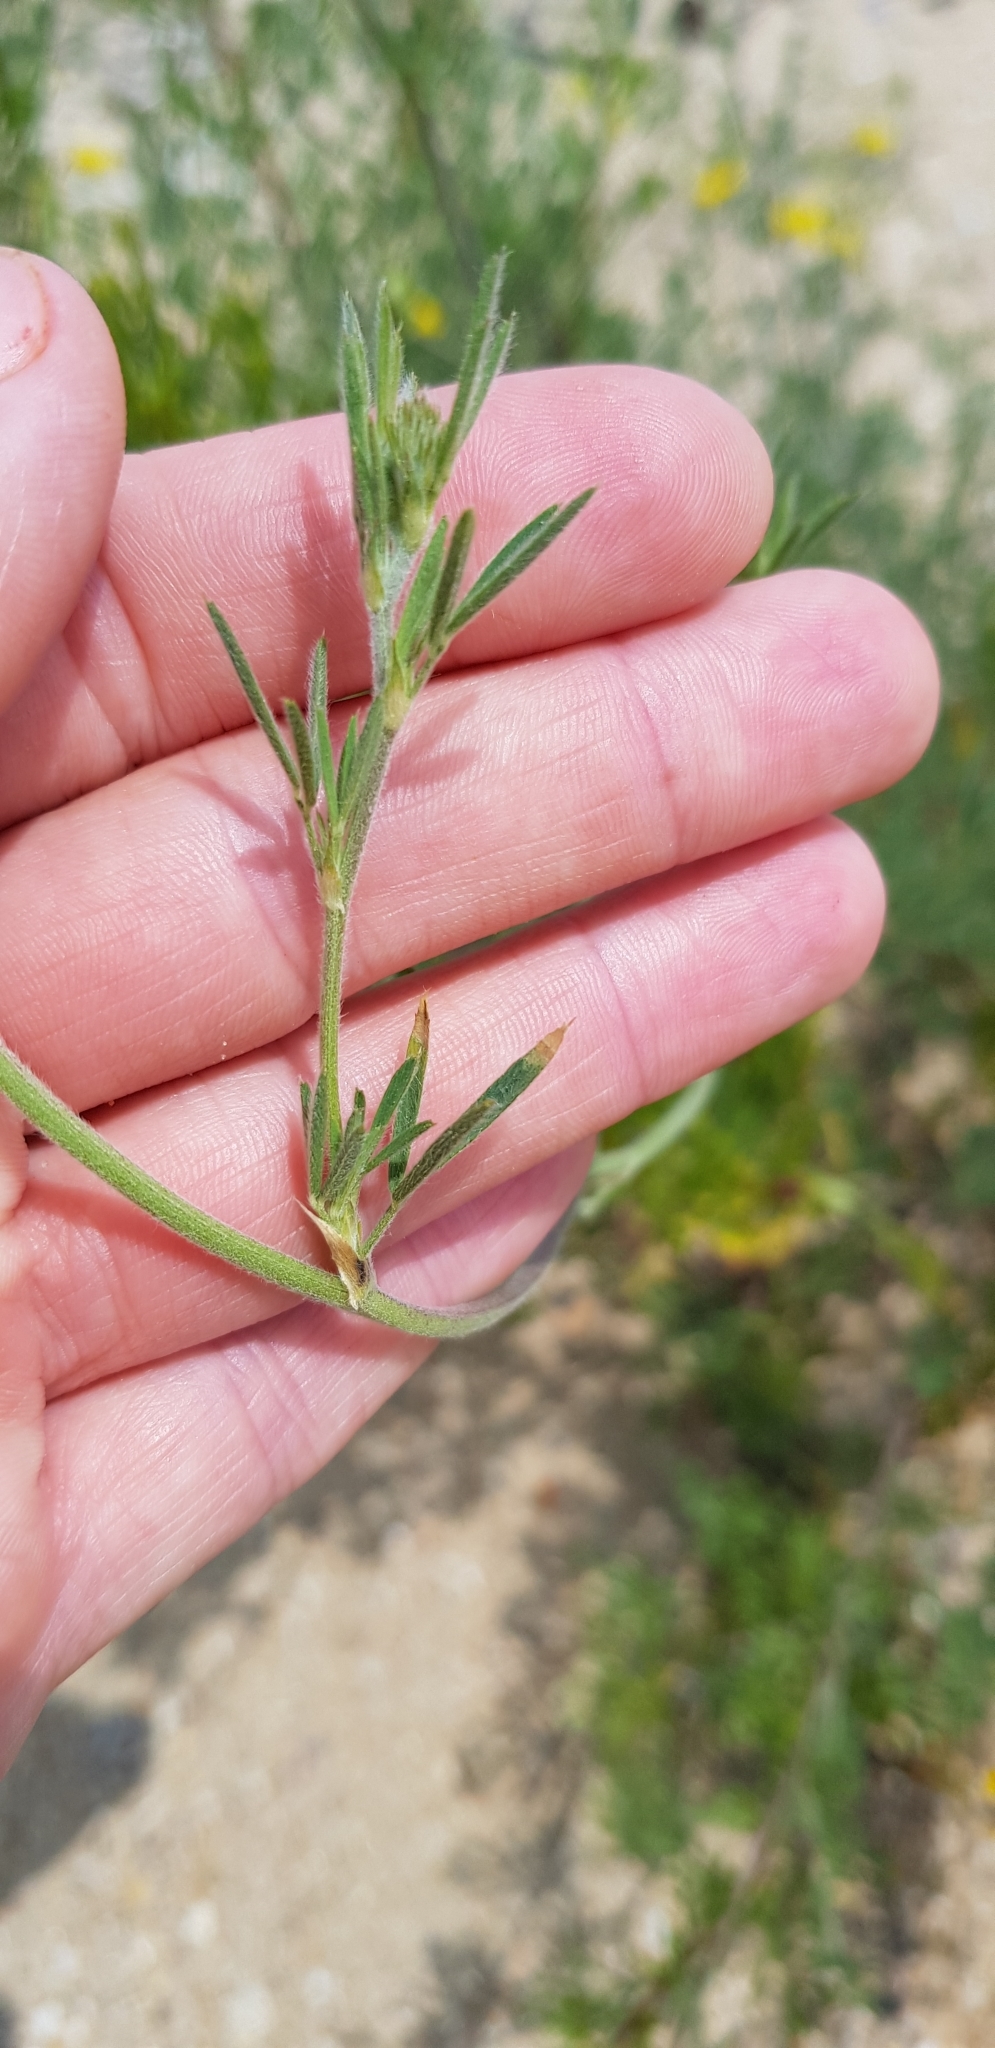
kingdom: Plantae
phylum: Tracheophyta
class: Magnoliopsida
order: Fabales
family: Fabaceae
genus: Medicago
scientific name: Medicago falcata
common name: Sickle medick
